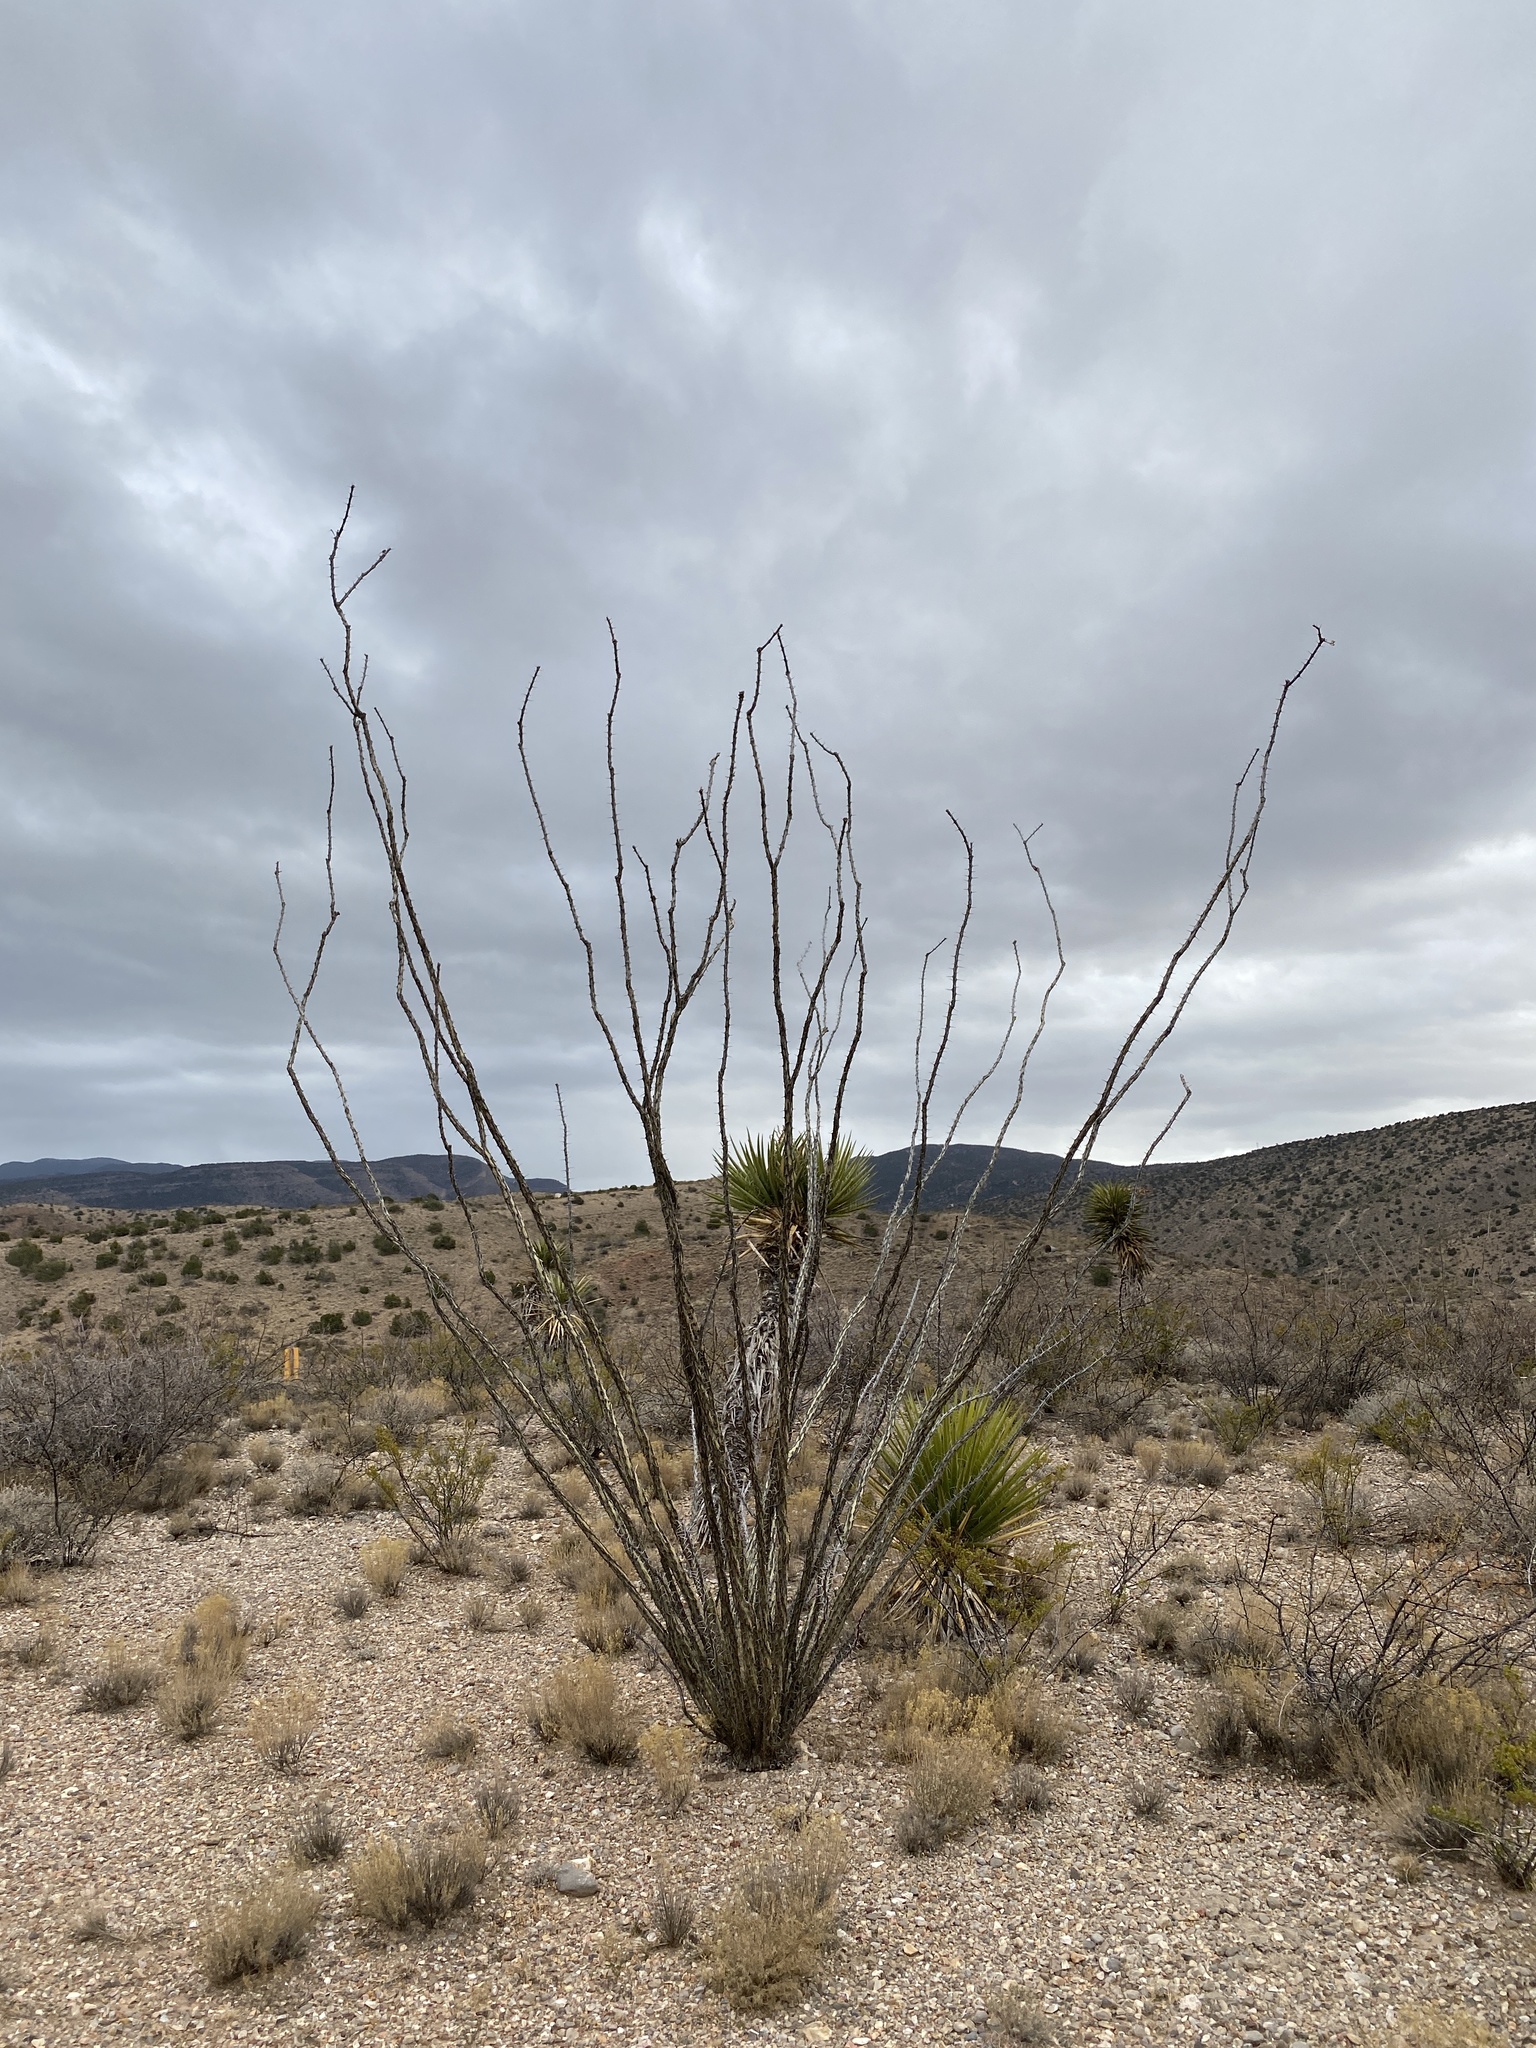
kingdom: Plantae
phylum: Tracheophyta
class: Magnoliopsida
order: Ericales
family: Fouquieriaceae
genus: Fouquieria
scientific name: Fouquieria splendens
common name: Vine-cactus
